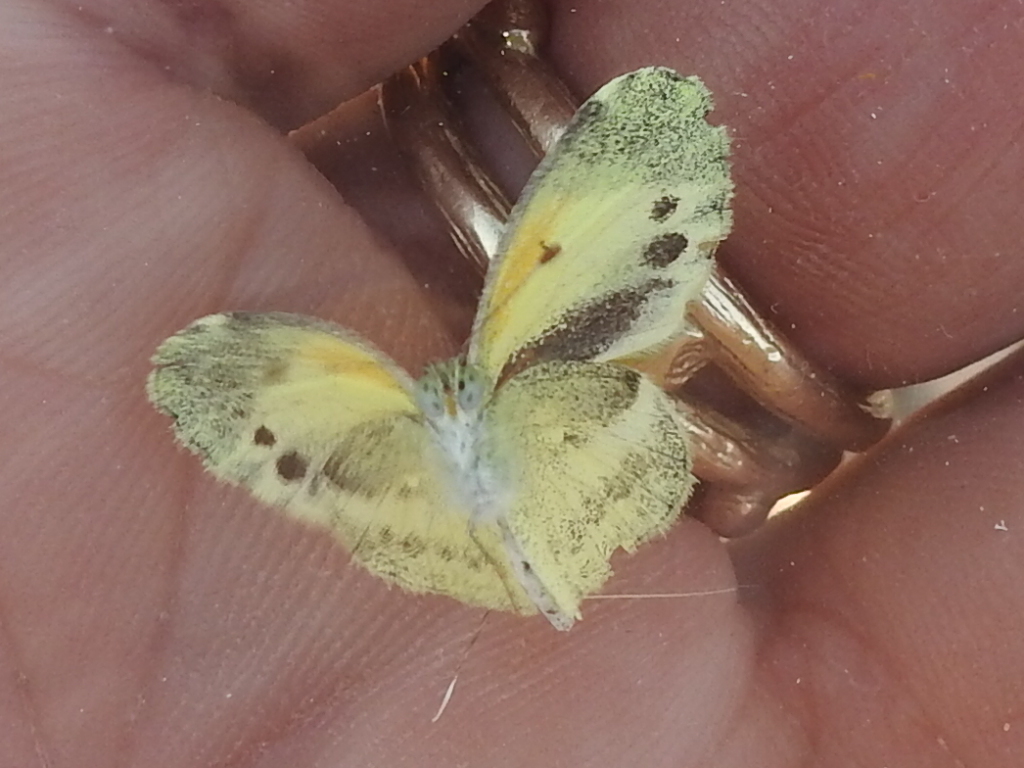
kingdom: Animalia
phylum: Arthropoda
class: Insecta
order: Lepidoptera
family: Pieridae
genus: Nathalis
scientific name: Nathalis iole
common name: Dainty sulphur
